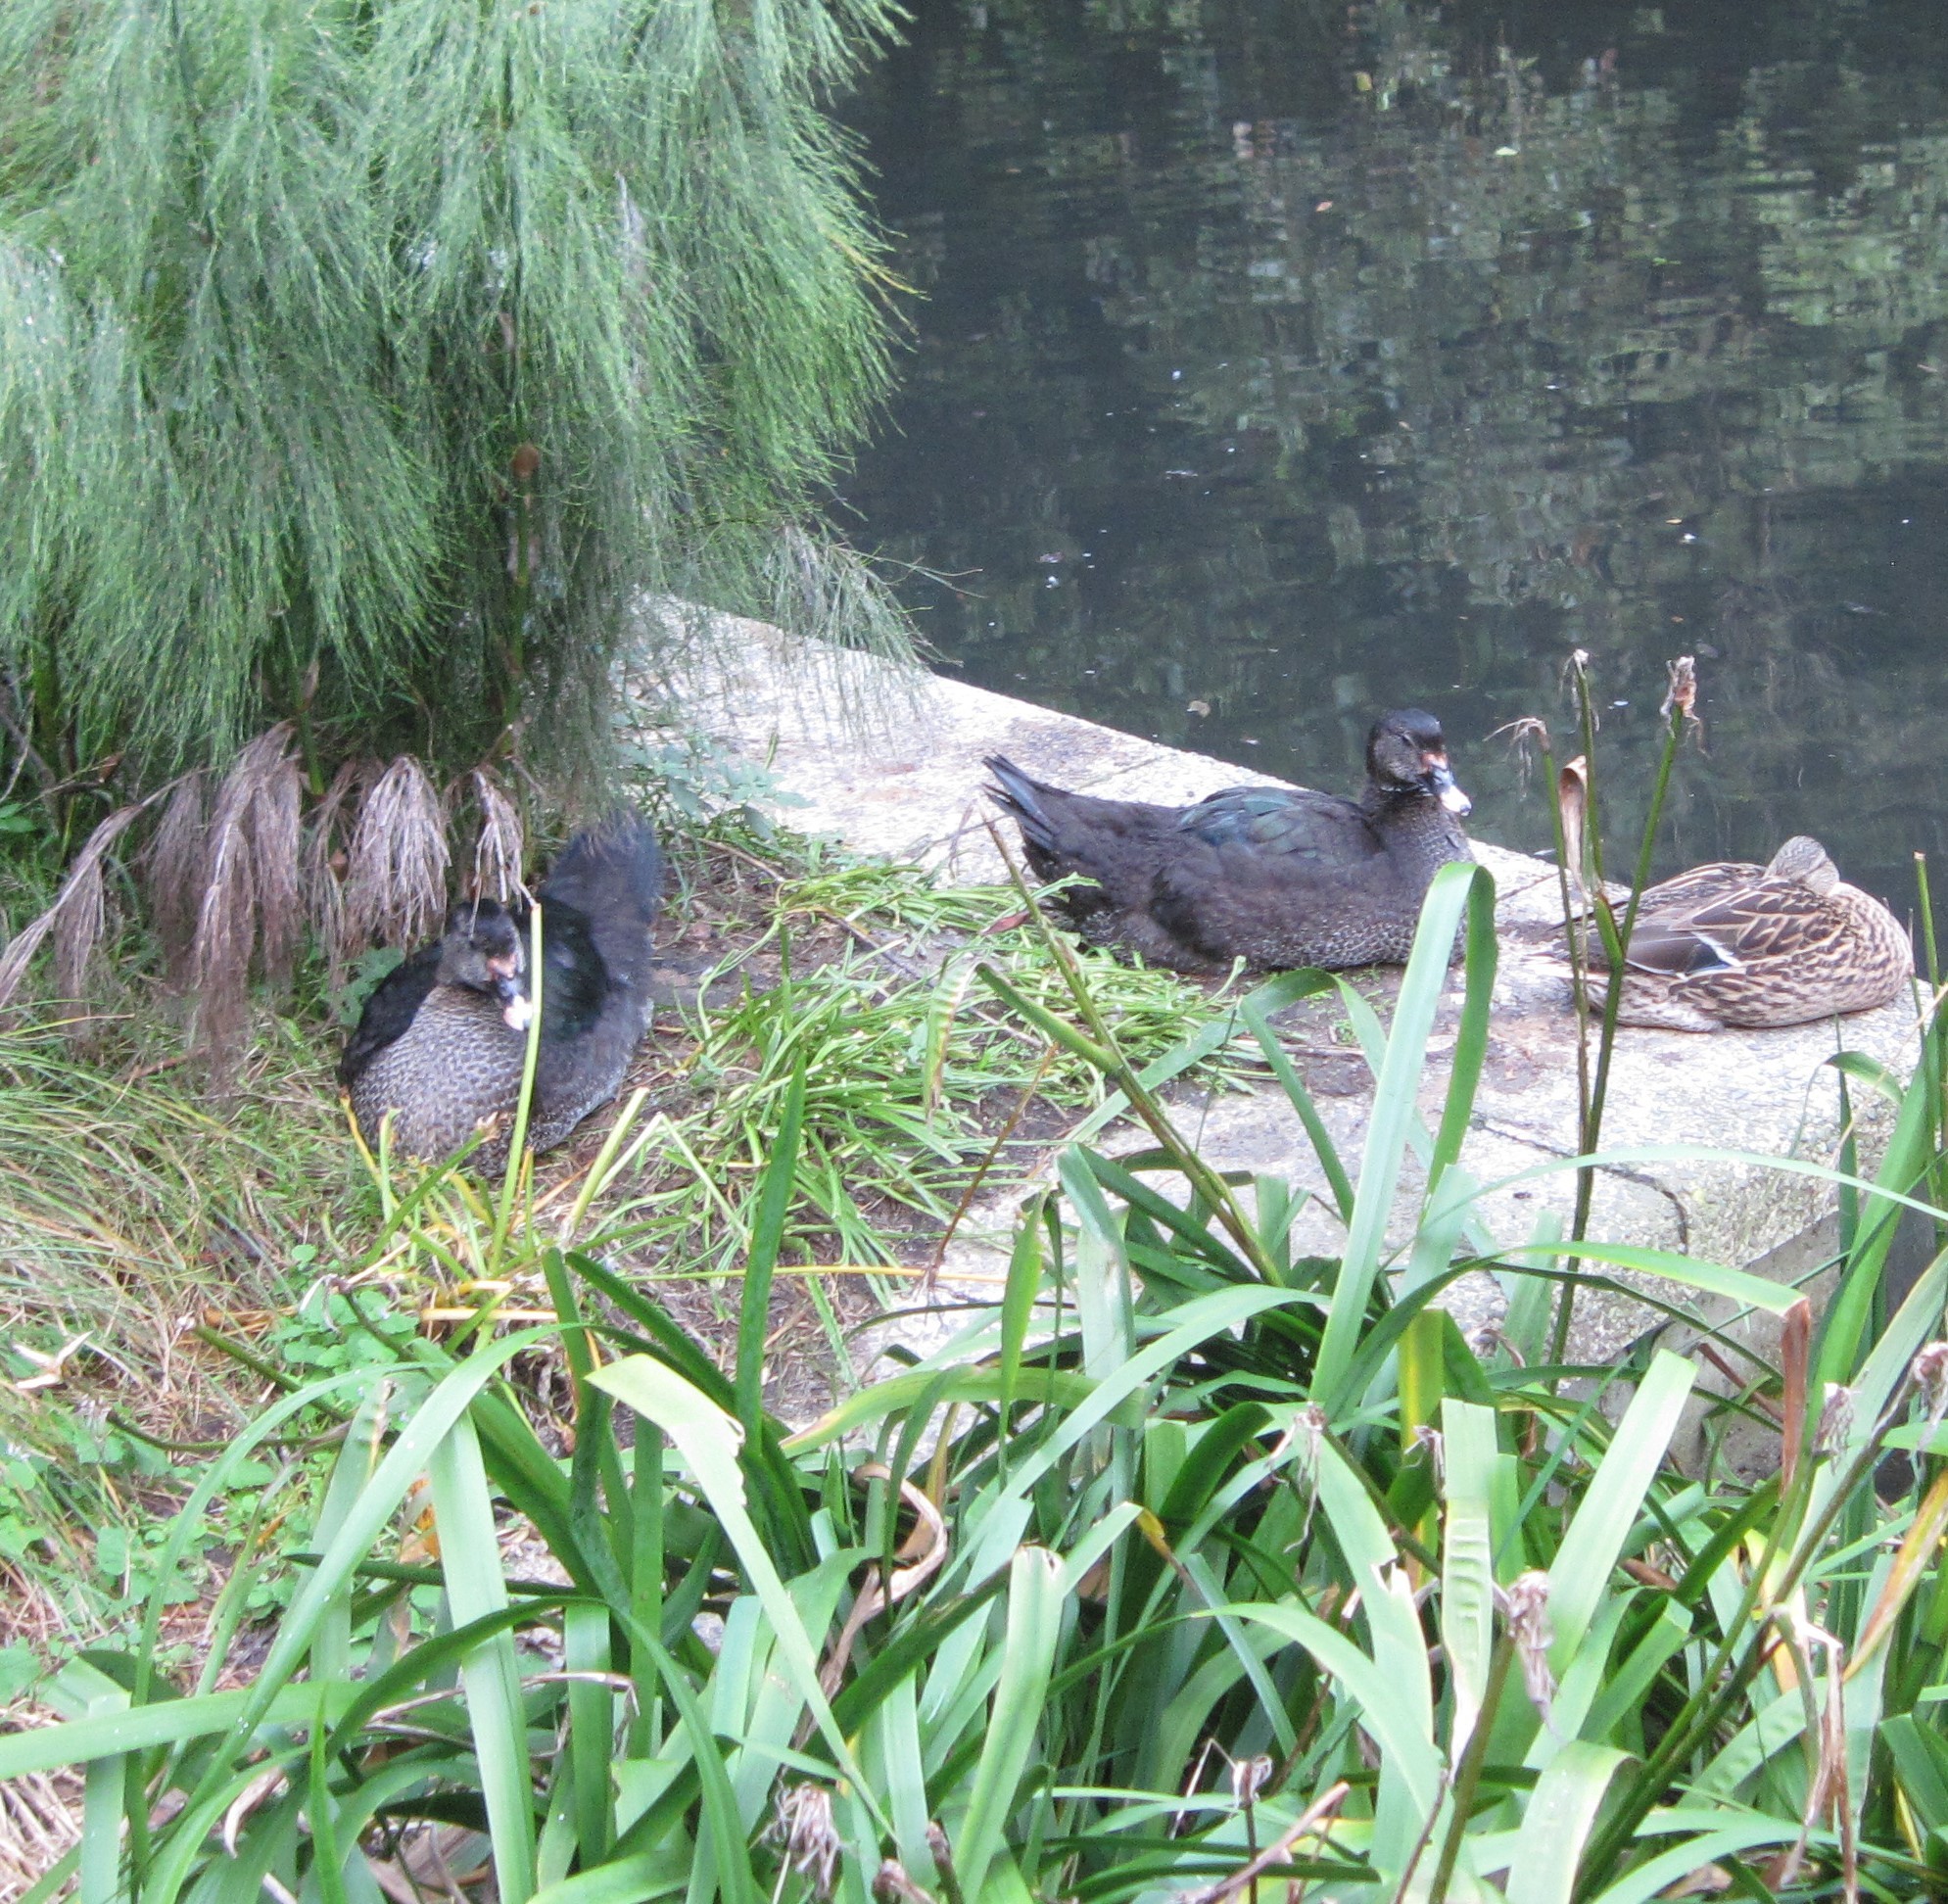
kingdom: Animalia
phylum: Chordata
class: Aves
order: Anseriformes
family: Anatidae
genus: Cairina
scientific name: Cairina moschata
